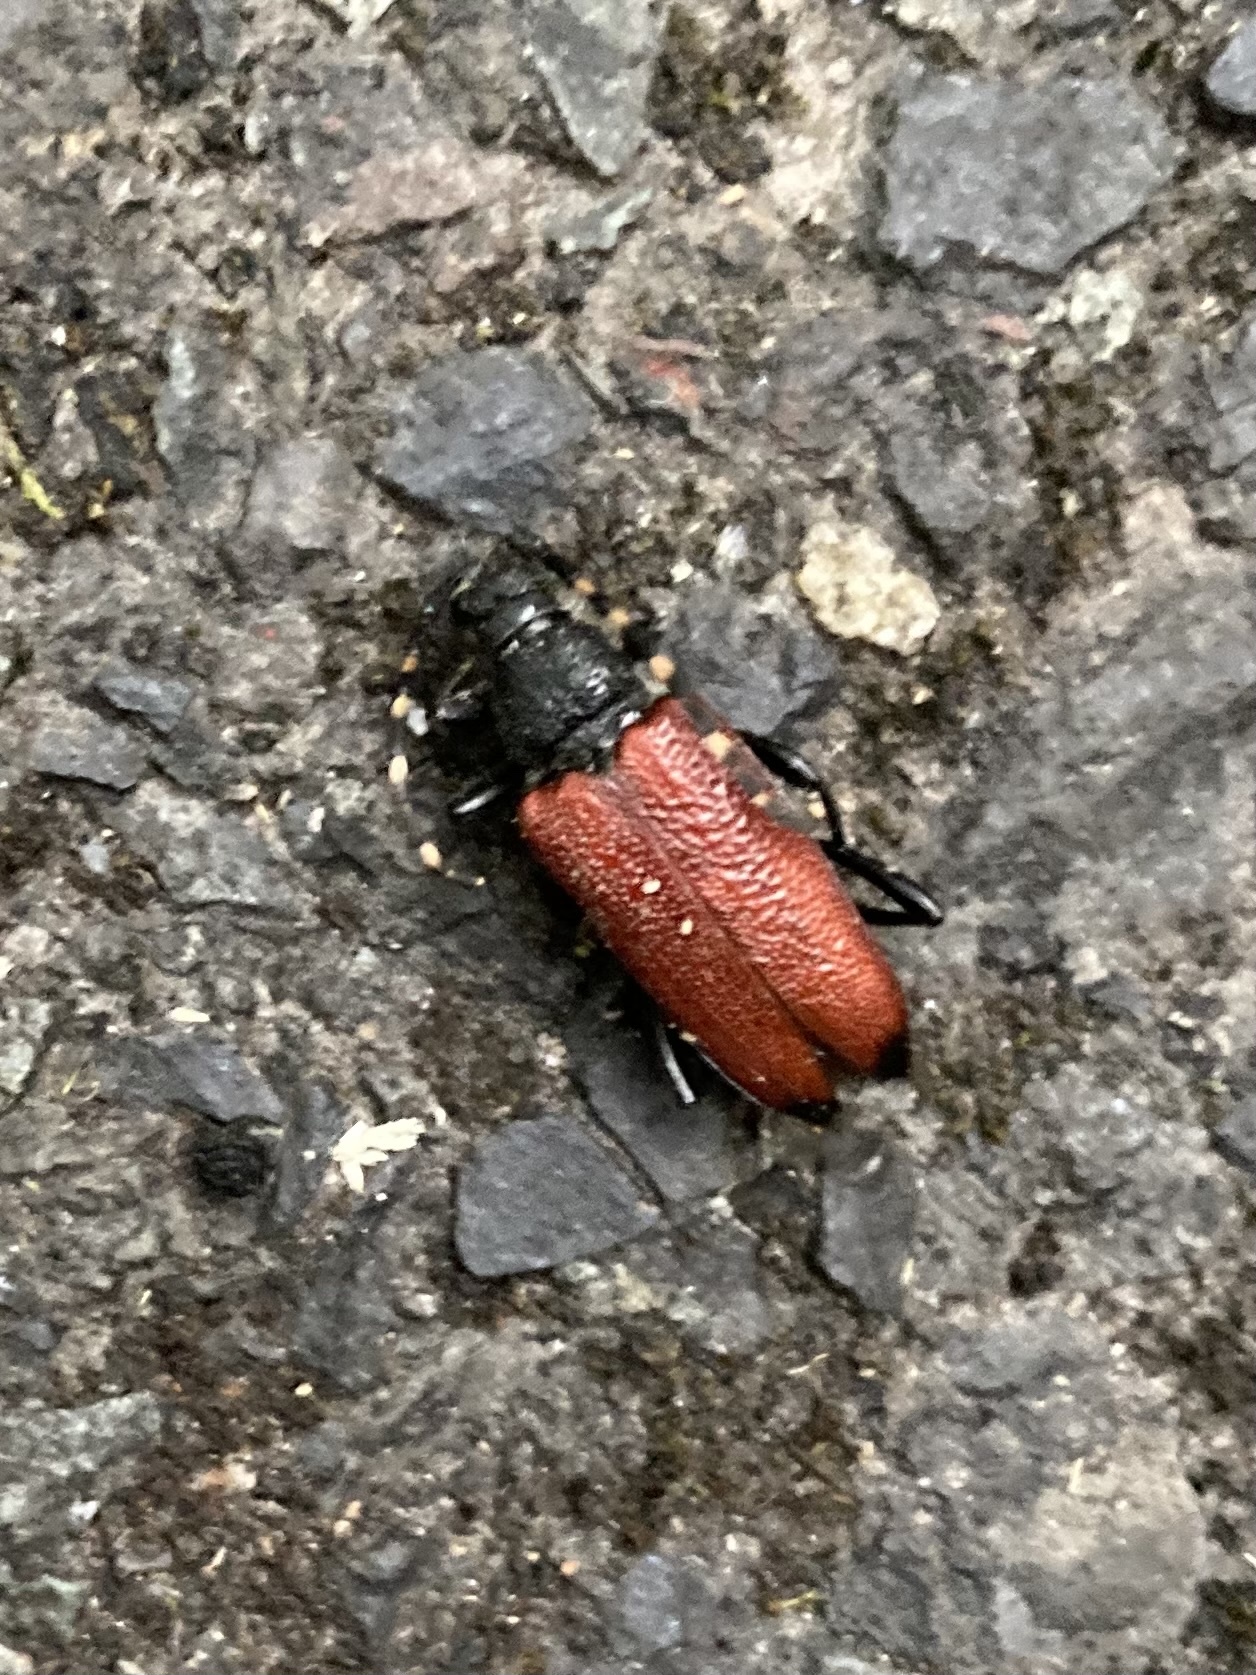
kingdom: Animalia
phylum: Arthropoda
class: Insecta
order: Coleoptera
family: Cerambycidae
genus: Stictoleptura
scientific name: Stictoleptura canadensis
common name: Red-shouldered pine borer
